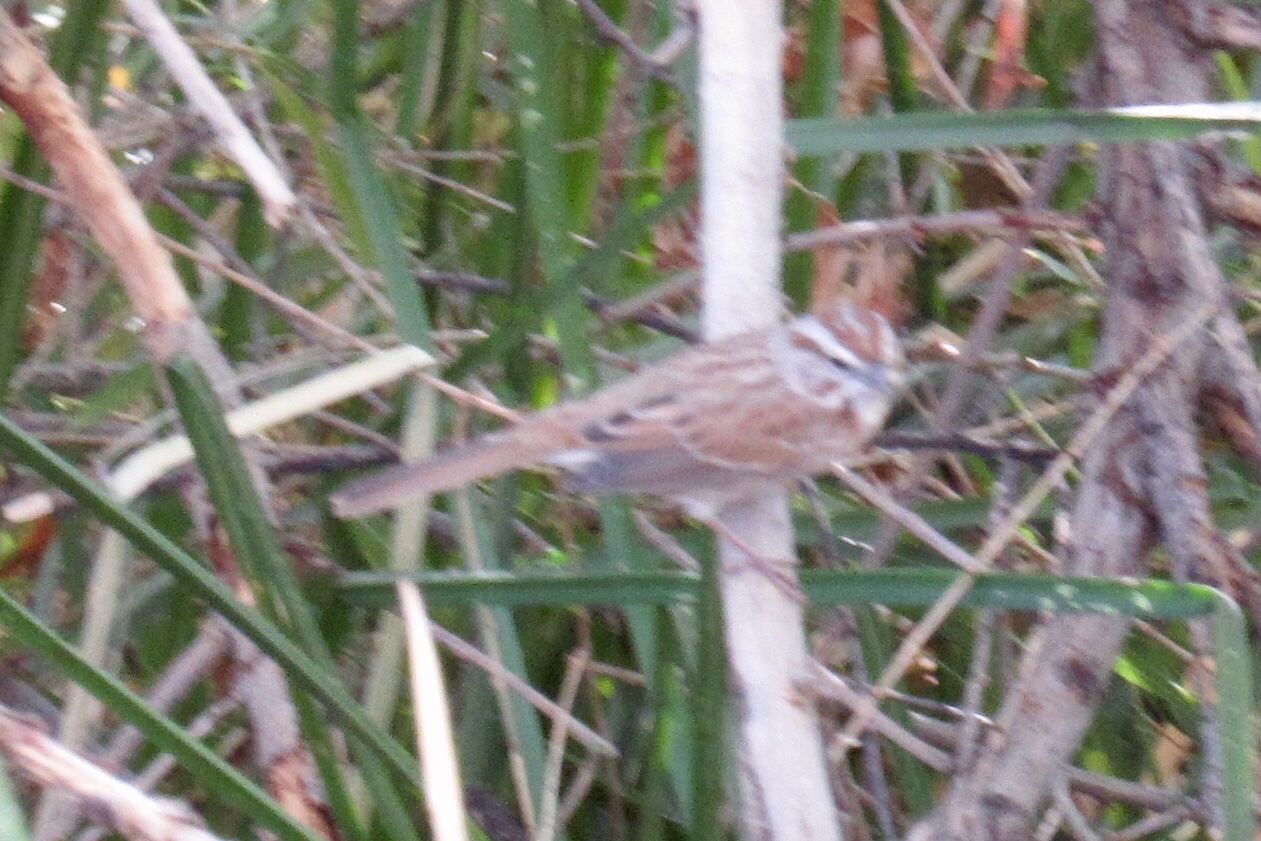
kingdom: Animalia
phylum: Chordata
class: Aves
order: Passeriformes
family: Passerellidae
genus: Melospiza
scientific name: Melospiza melodia
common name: Song sparrow
